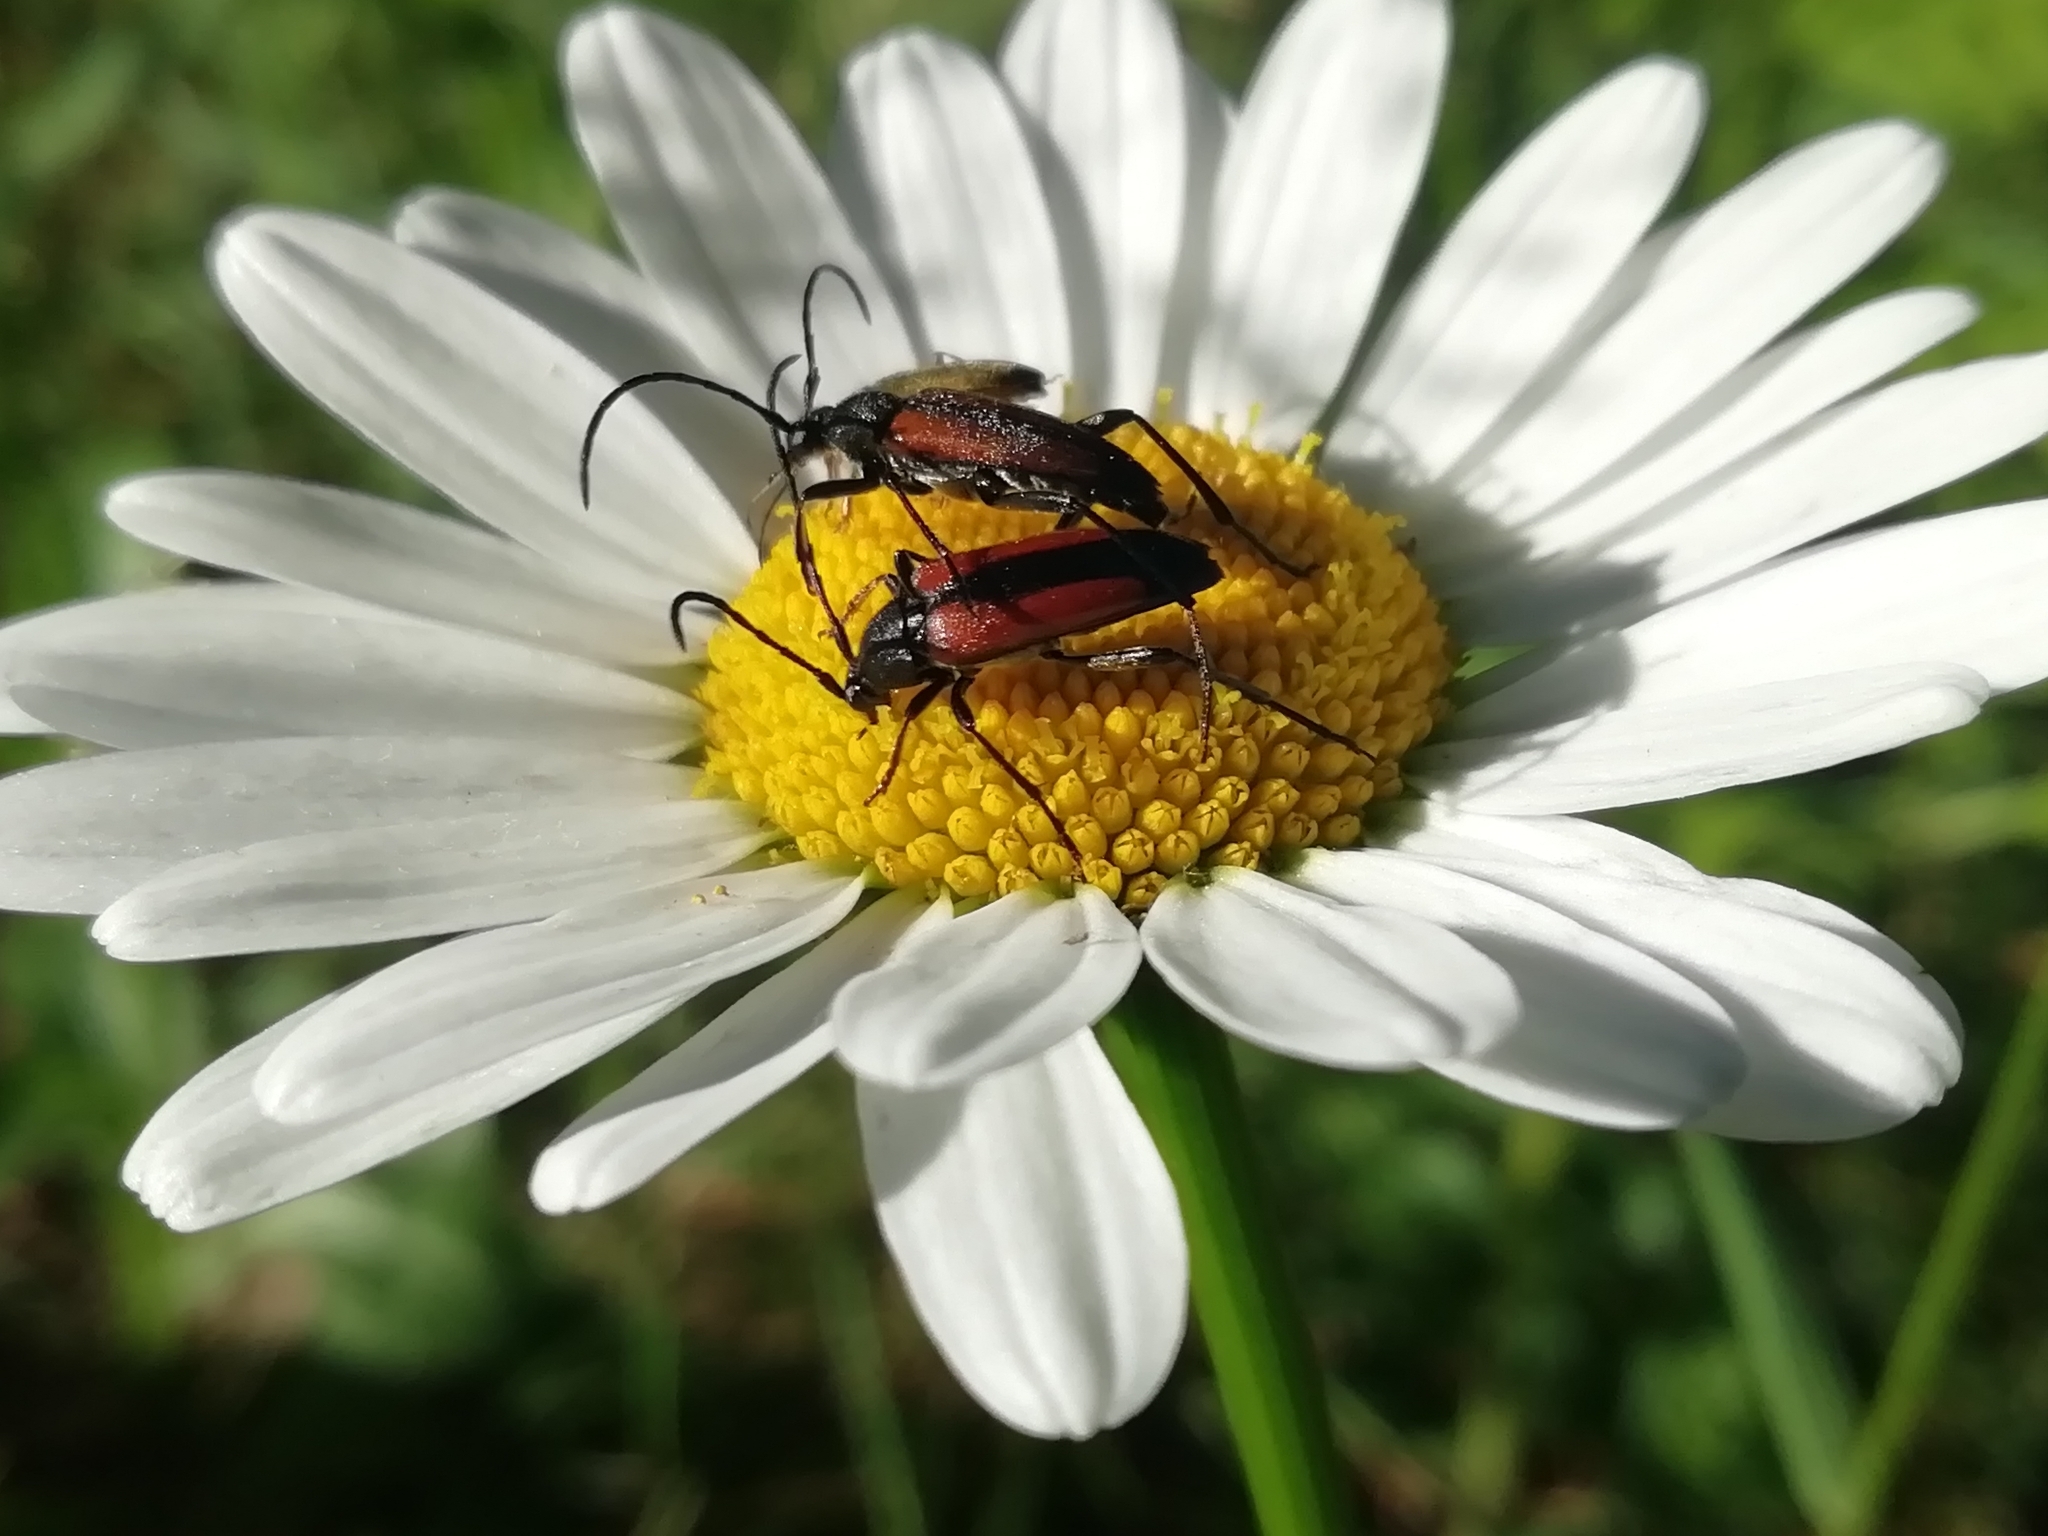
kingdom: Animalia
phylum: Arthropoda
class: Insecta
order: Coleoptera
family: Cerambycidae
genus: Stenurella
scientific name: Stenurella melanura
